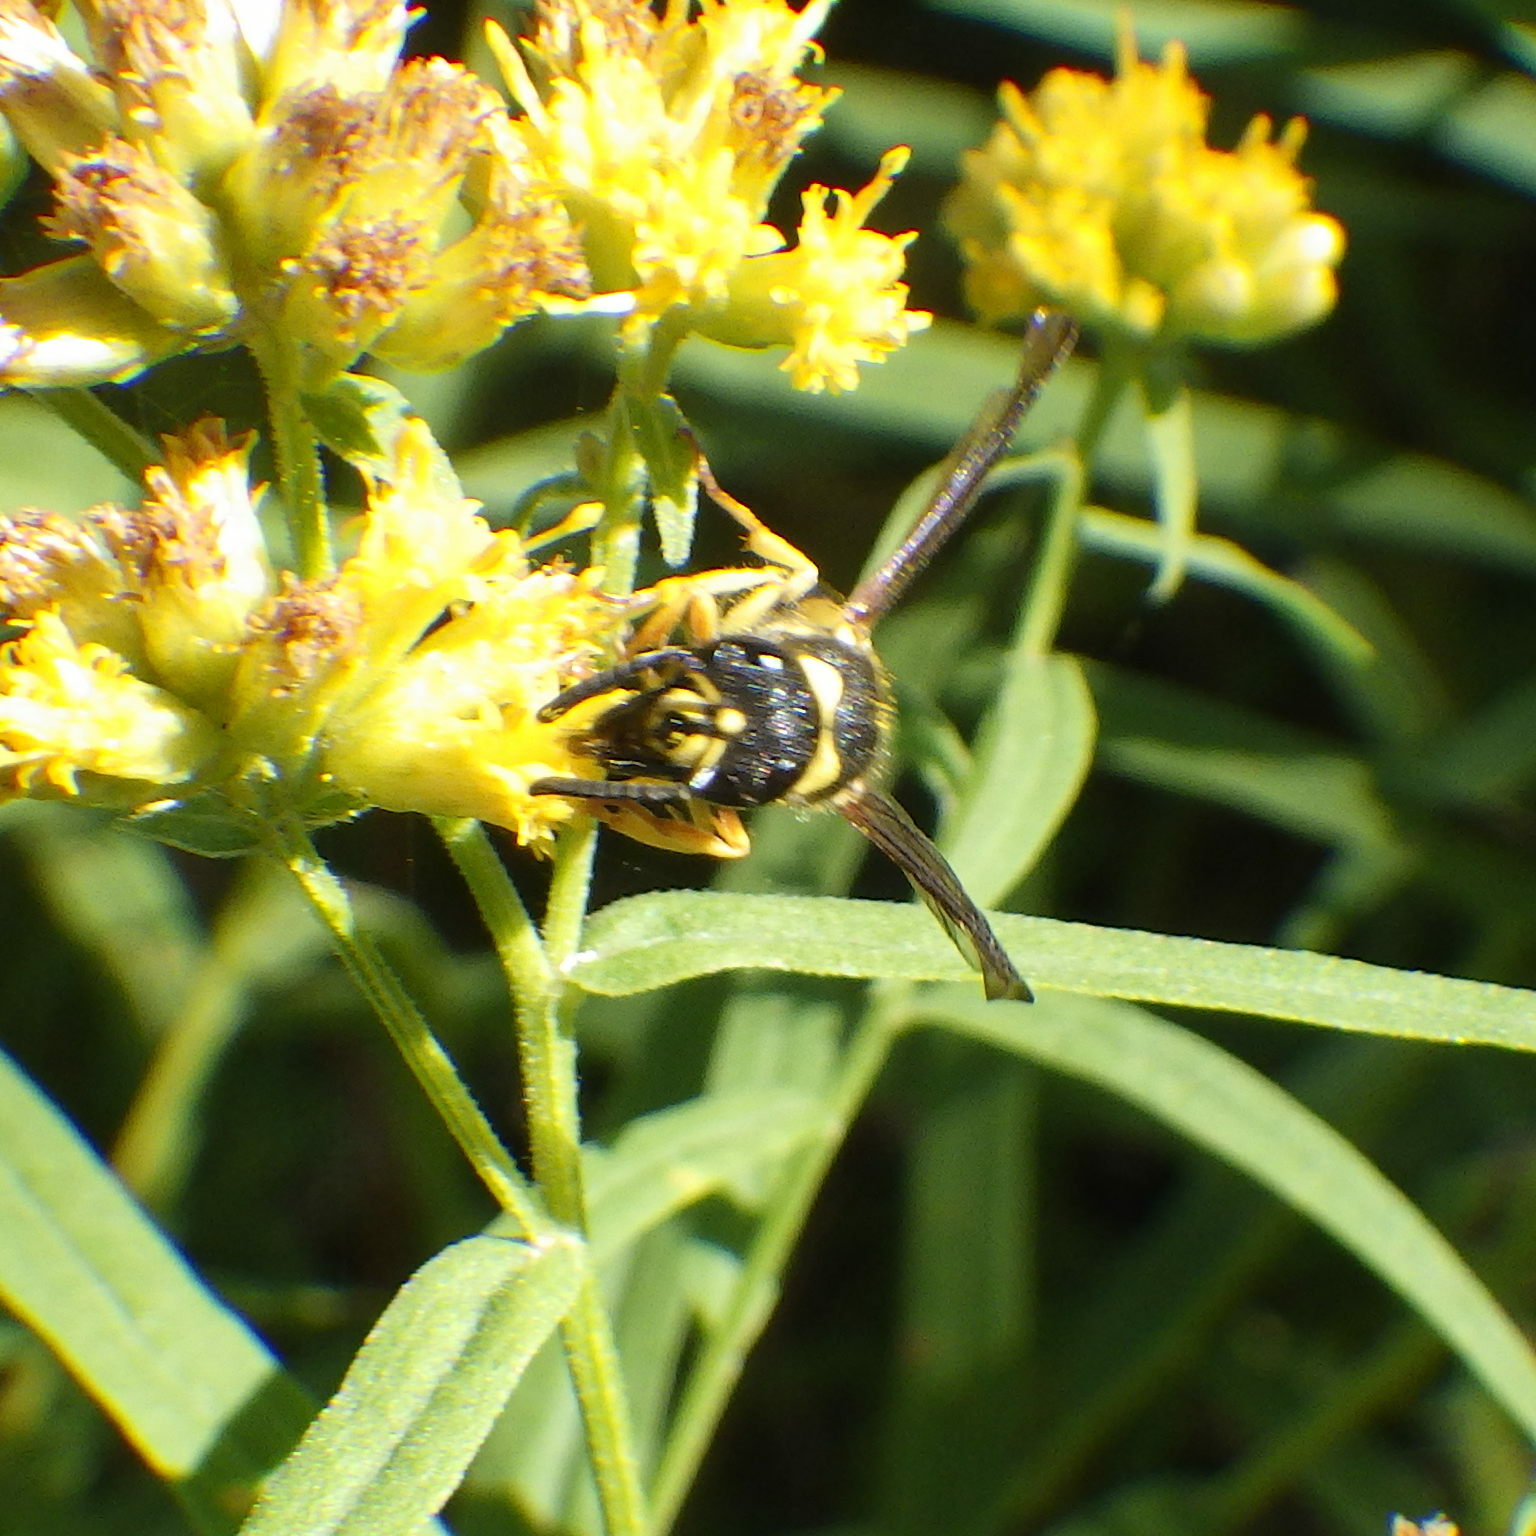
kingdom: Animalia
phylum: Arthropoda
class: Insecta
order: Hymenoptera
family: Vespidae
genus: Ancistrocerus
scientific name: Ancistrocerus gazella
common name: European tube wasp
